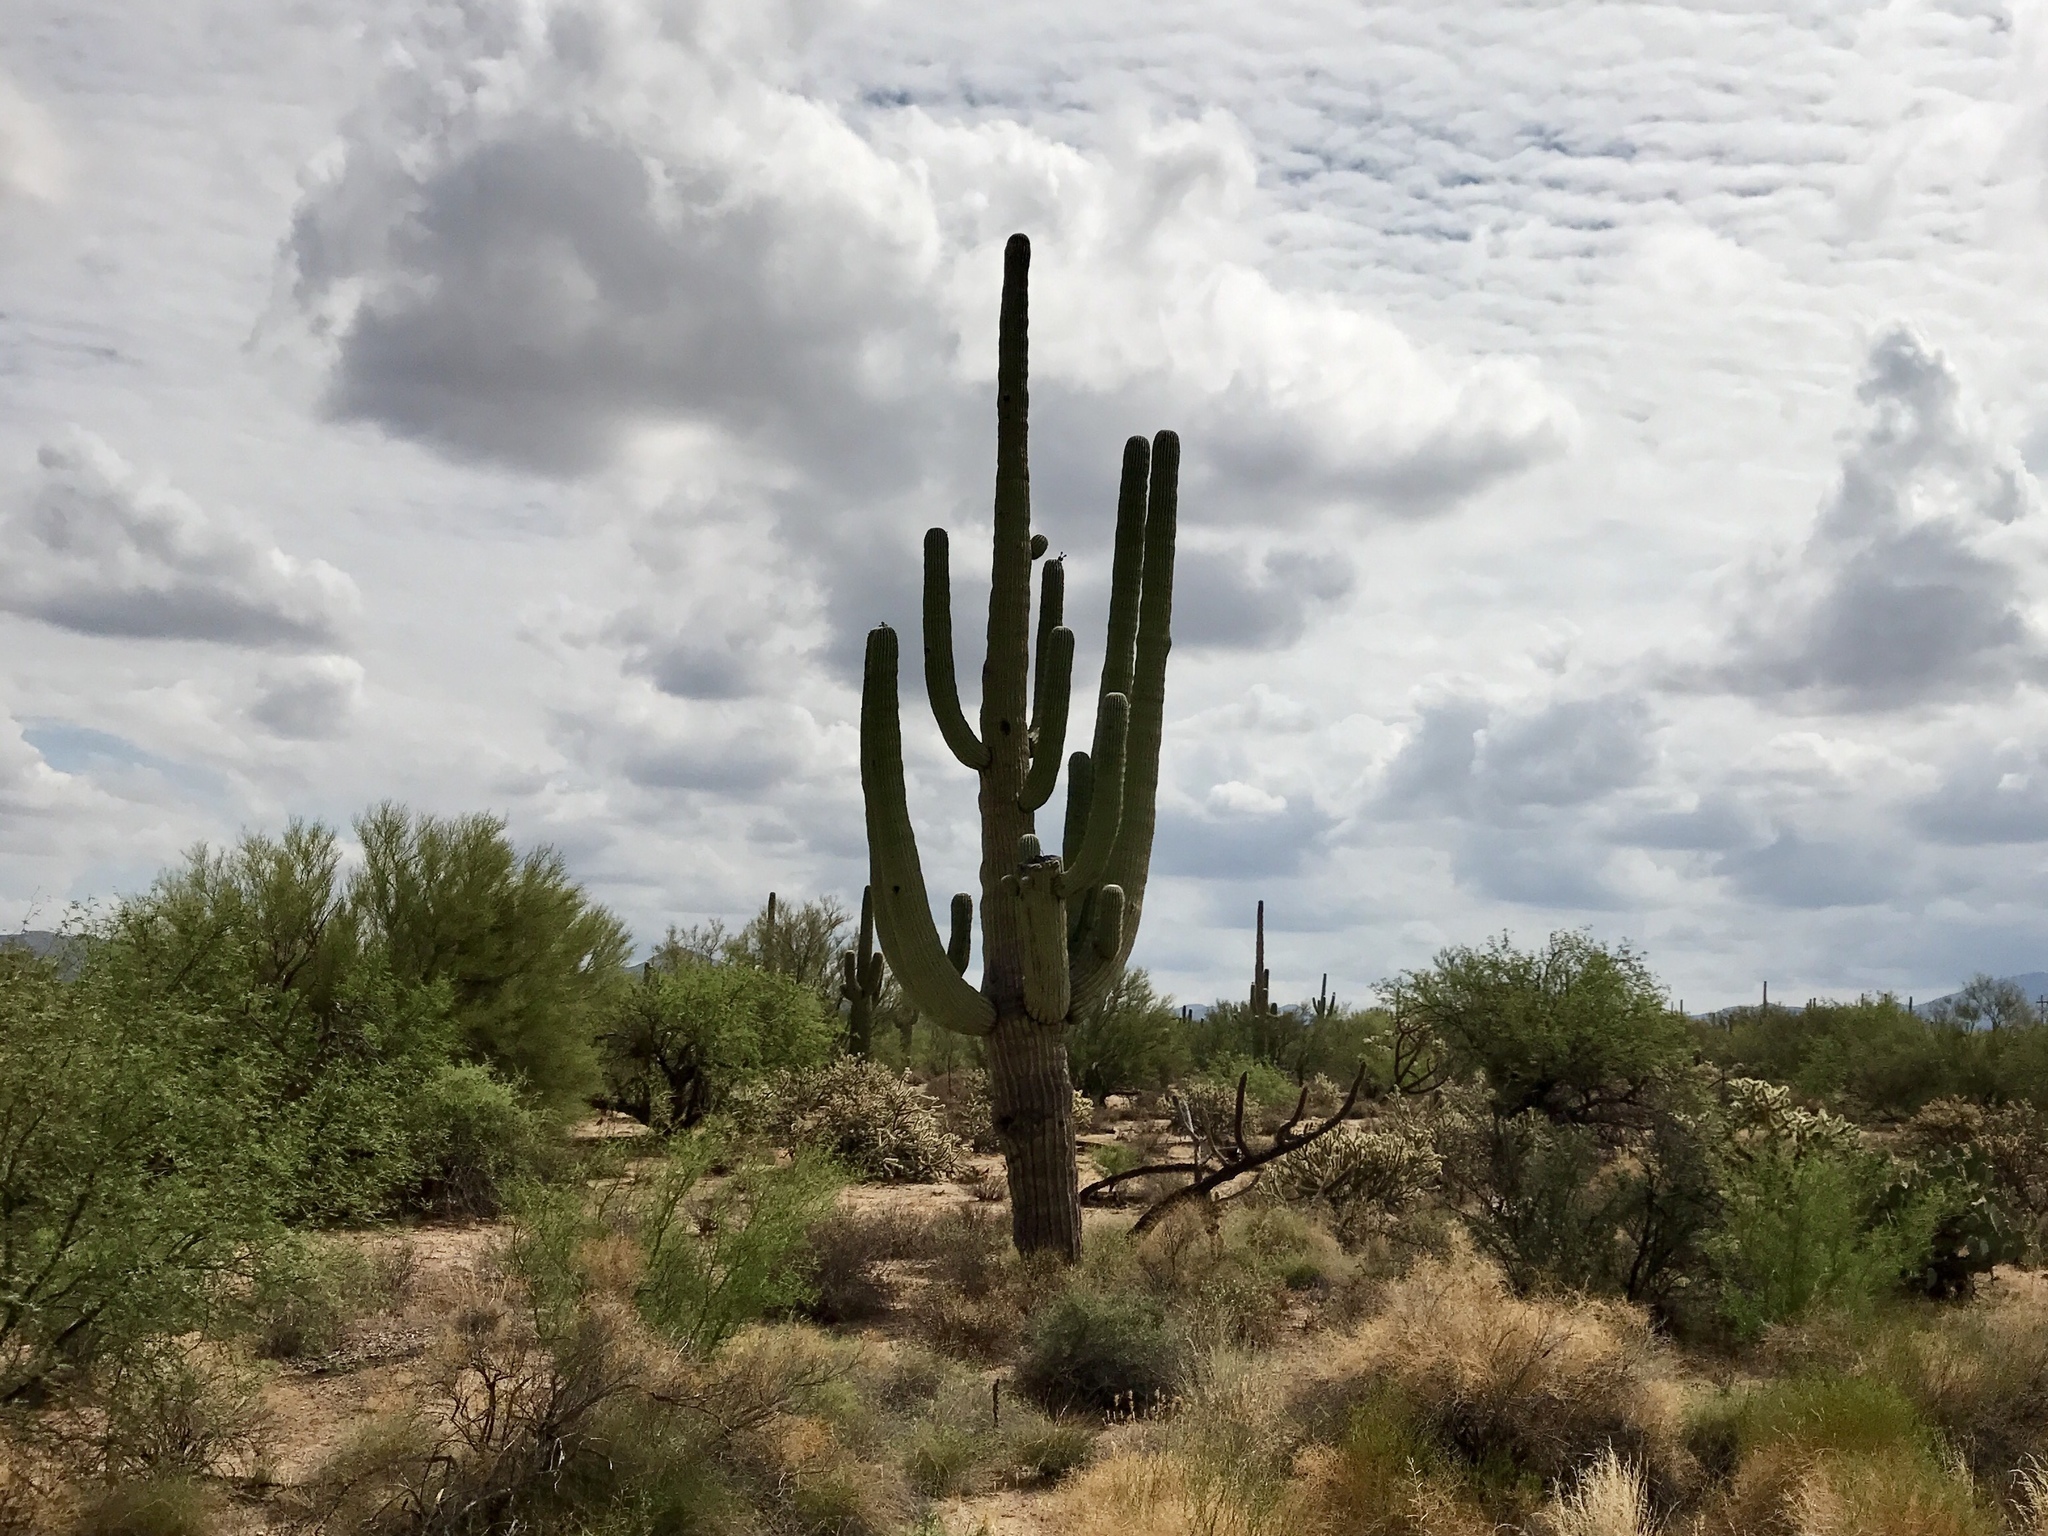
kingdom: Plantae
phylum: Tracheophyta
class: Magnoliopsida
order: Caryophyllales
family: Cactaceae
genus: Carnegiea
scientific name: Carnegiea gigantea
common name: Saguaro
